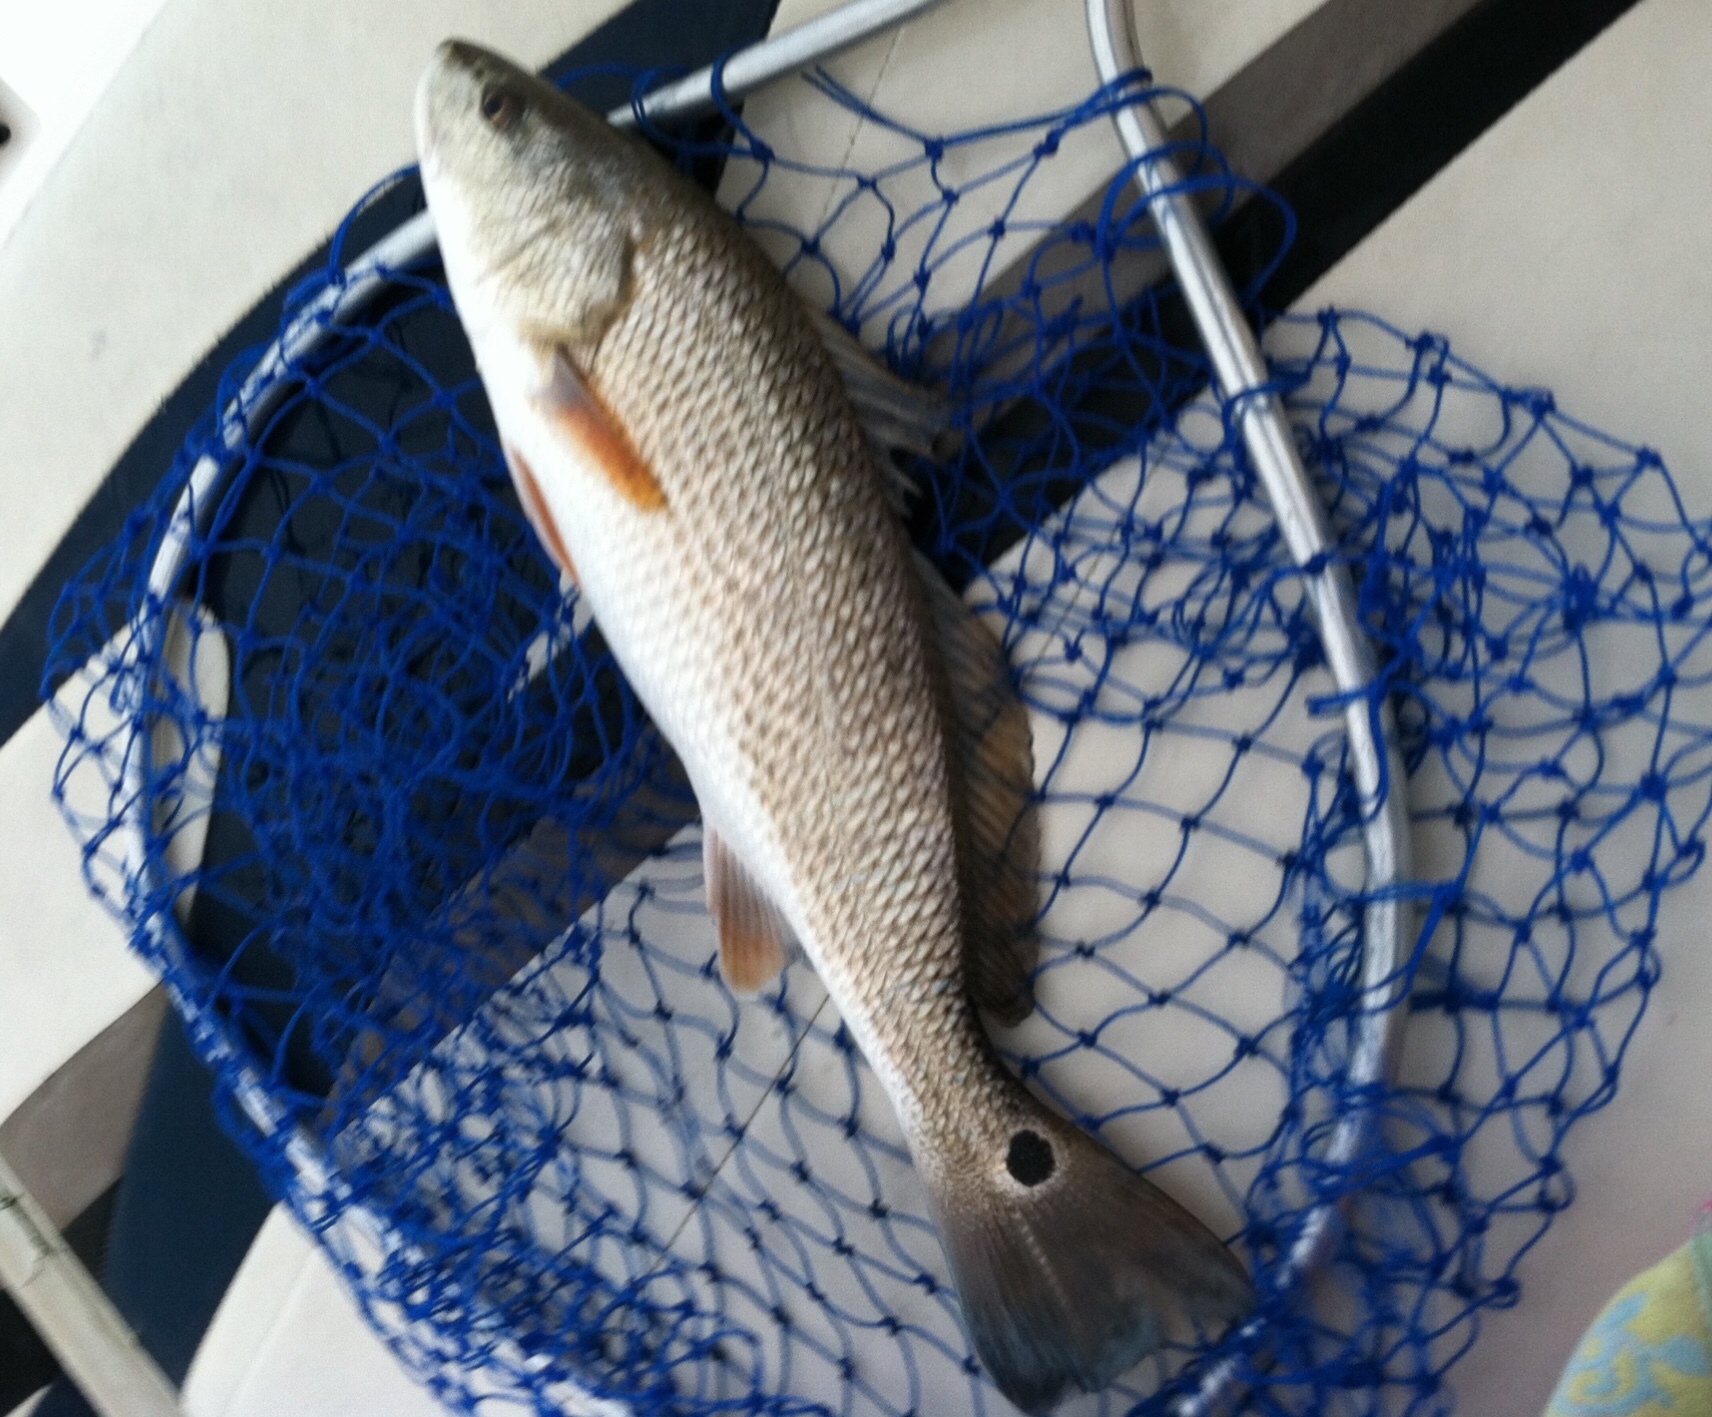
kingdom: Animalia
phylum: Chordata
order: Perciformes
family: Sciaenidae
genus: Sciaenops
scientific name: Sciaenops ocellatus
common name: Red drum
